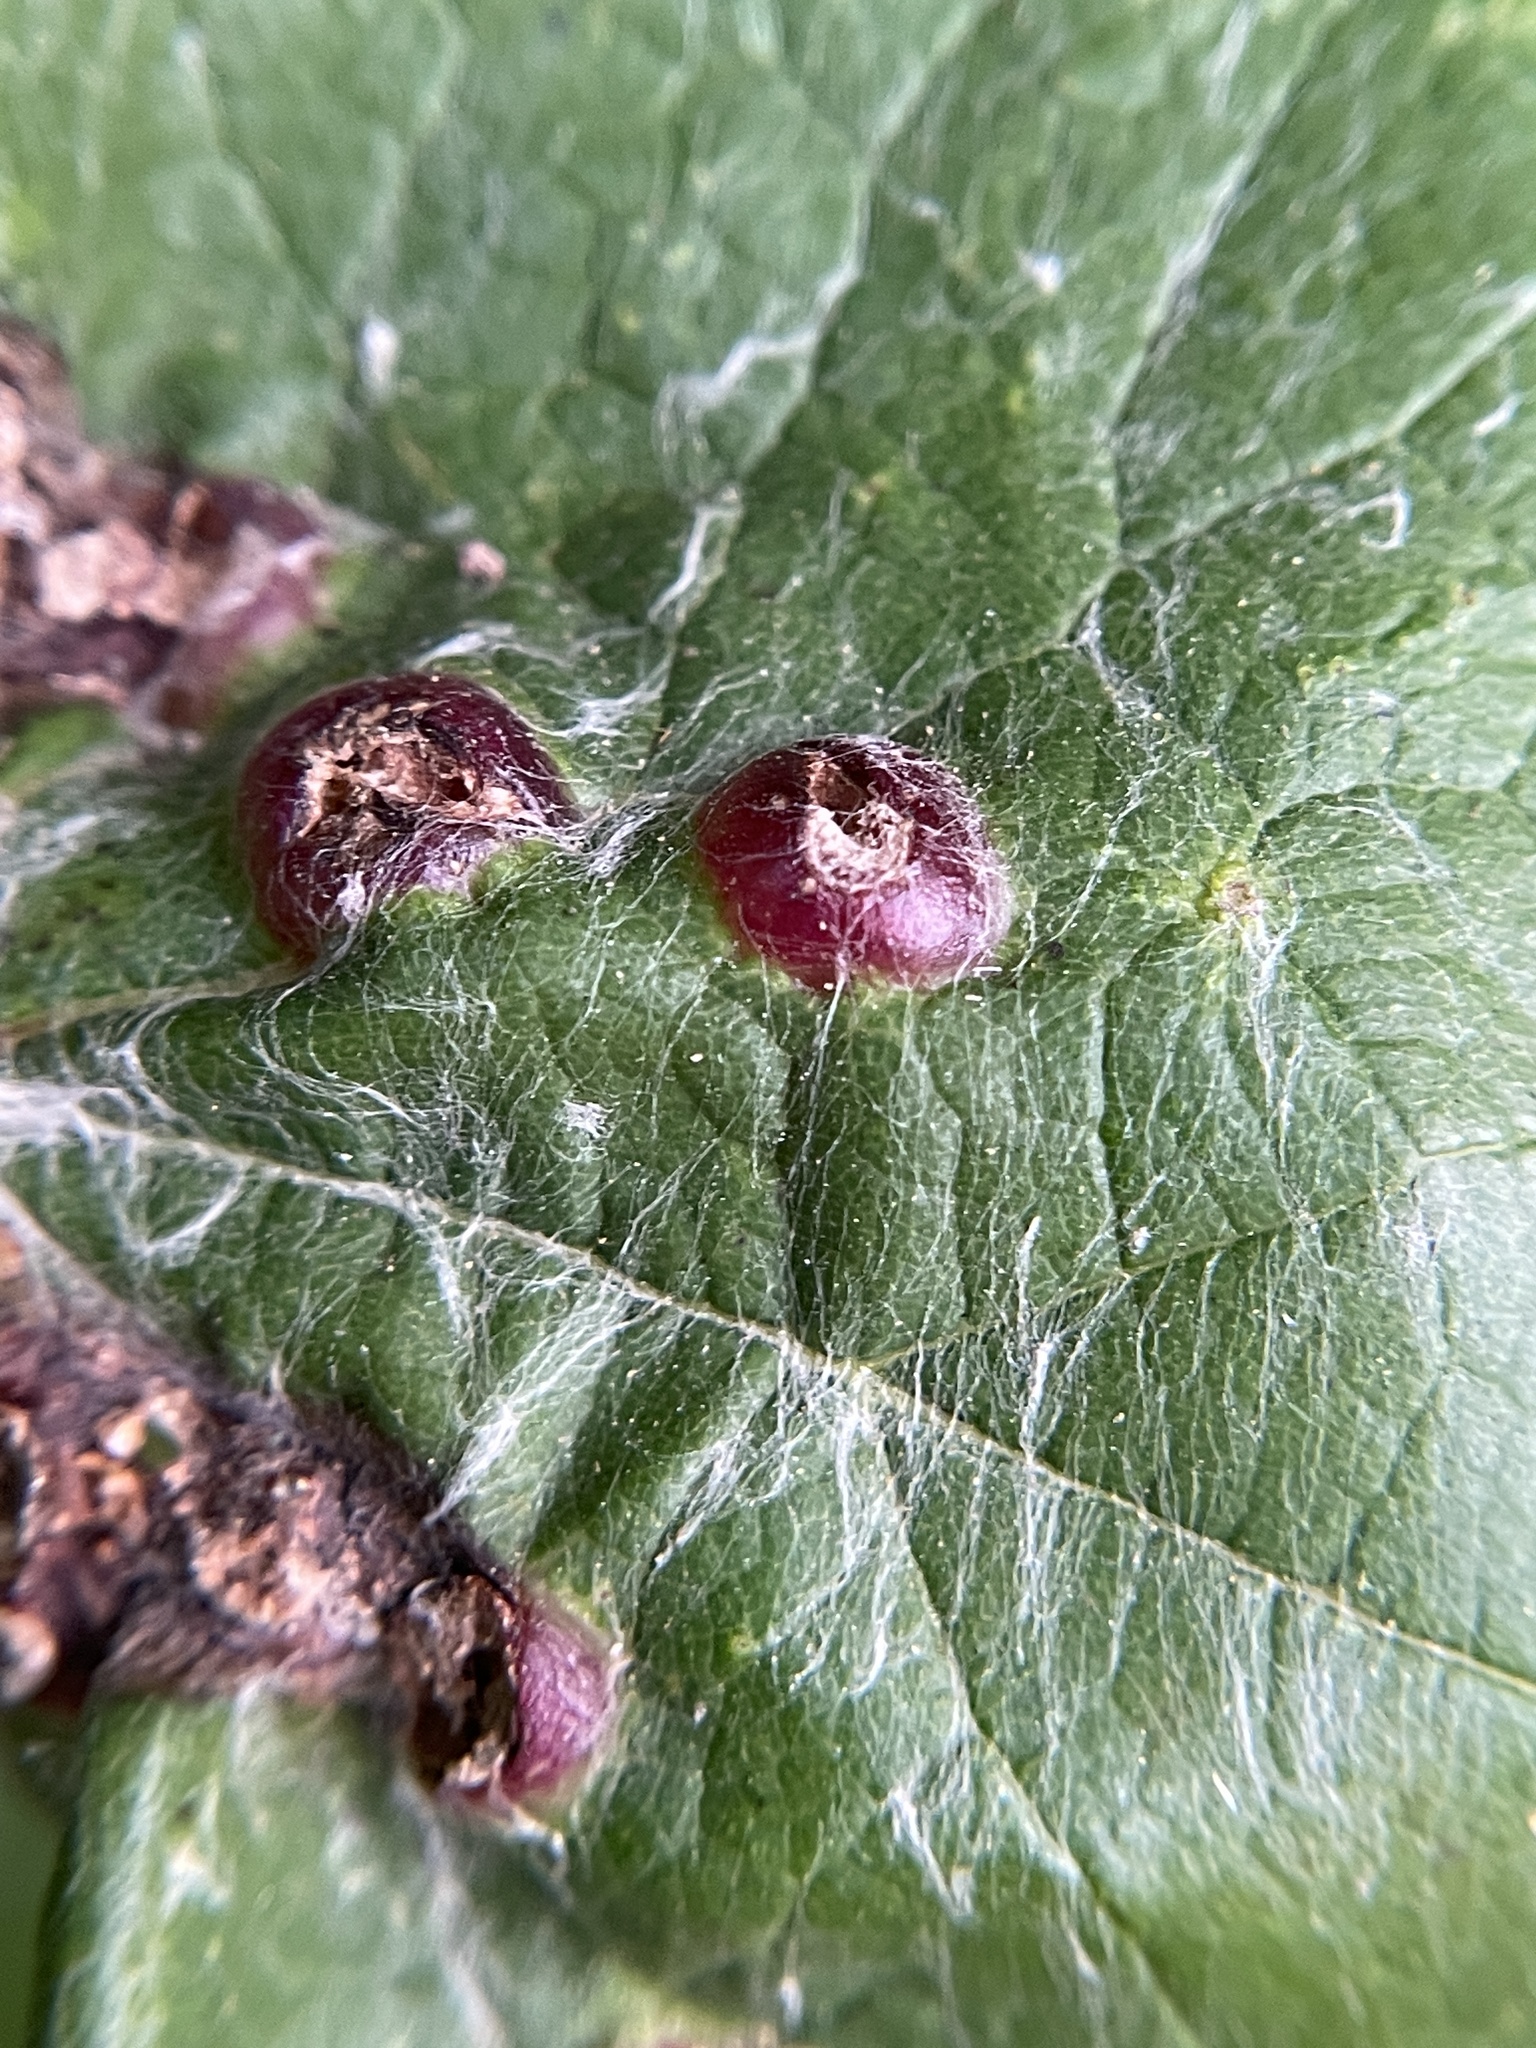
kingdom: Animalia
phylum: Arthropoda
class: Insecta
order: Diptera
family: Cecidomyiidae
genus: Vitisiella
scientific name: Vitisiella brevicauda
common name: Grape tumid gallmaker midge
